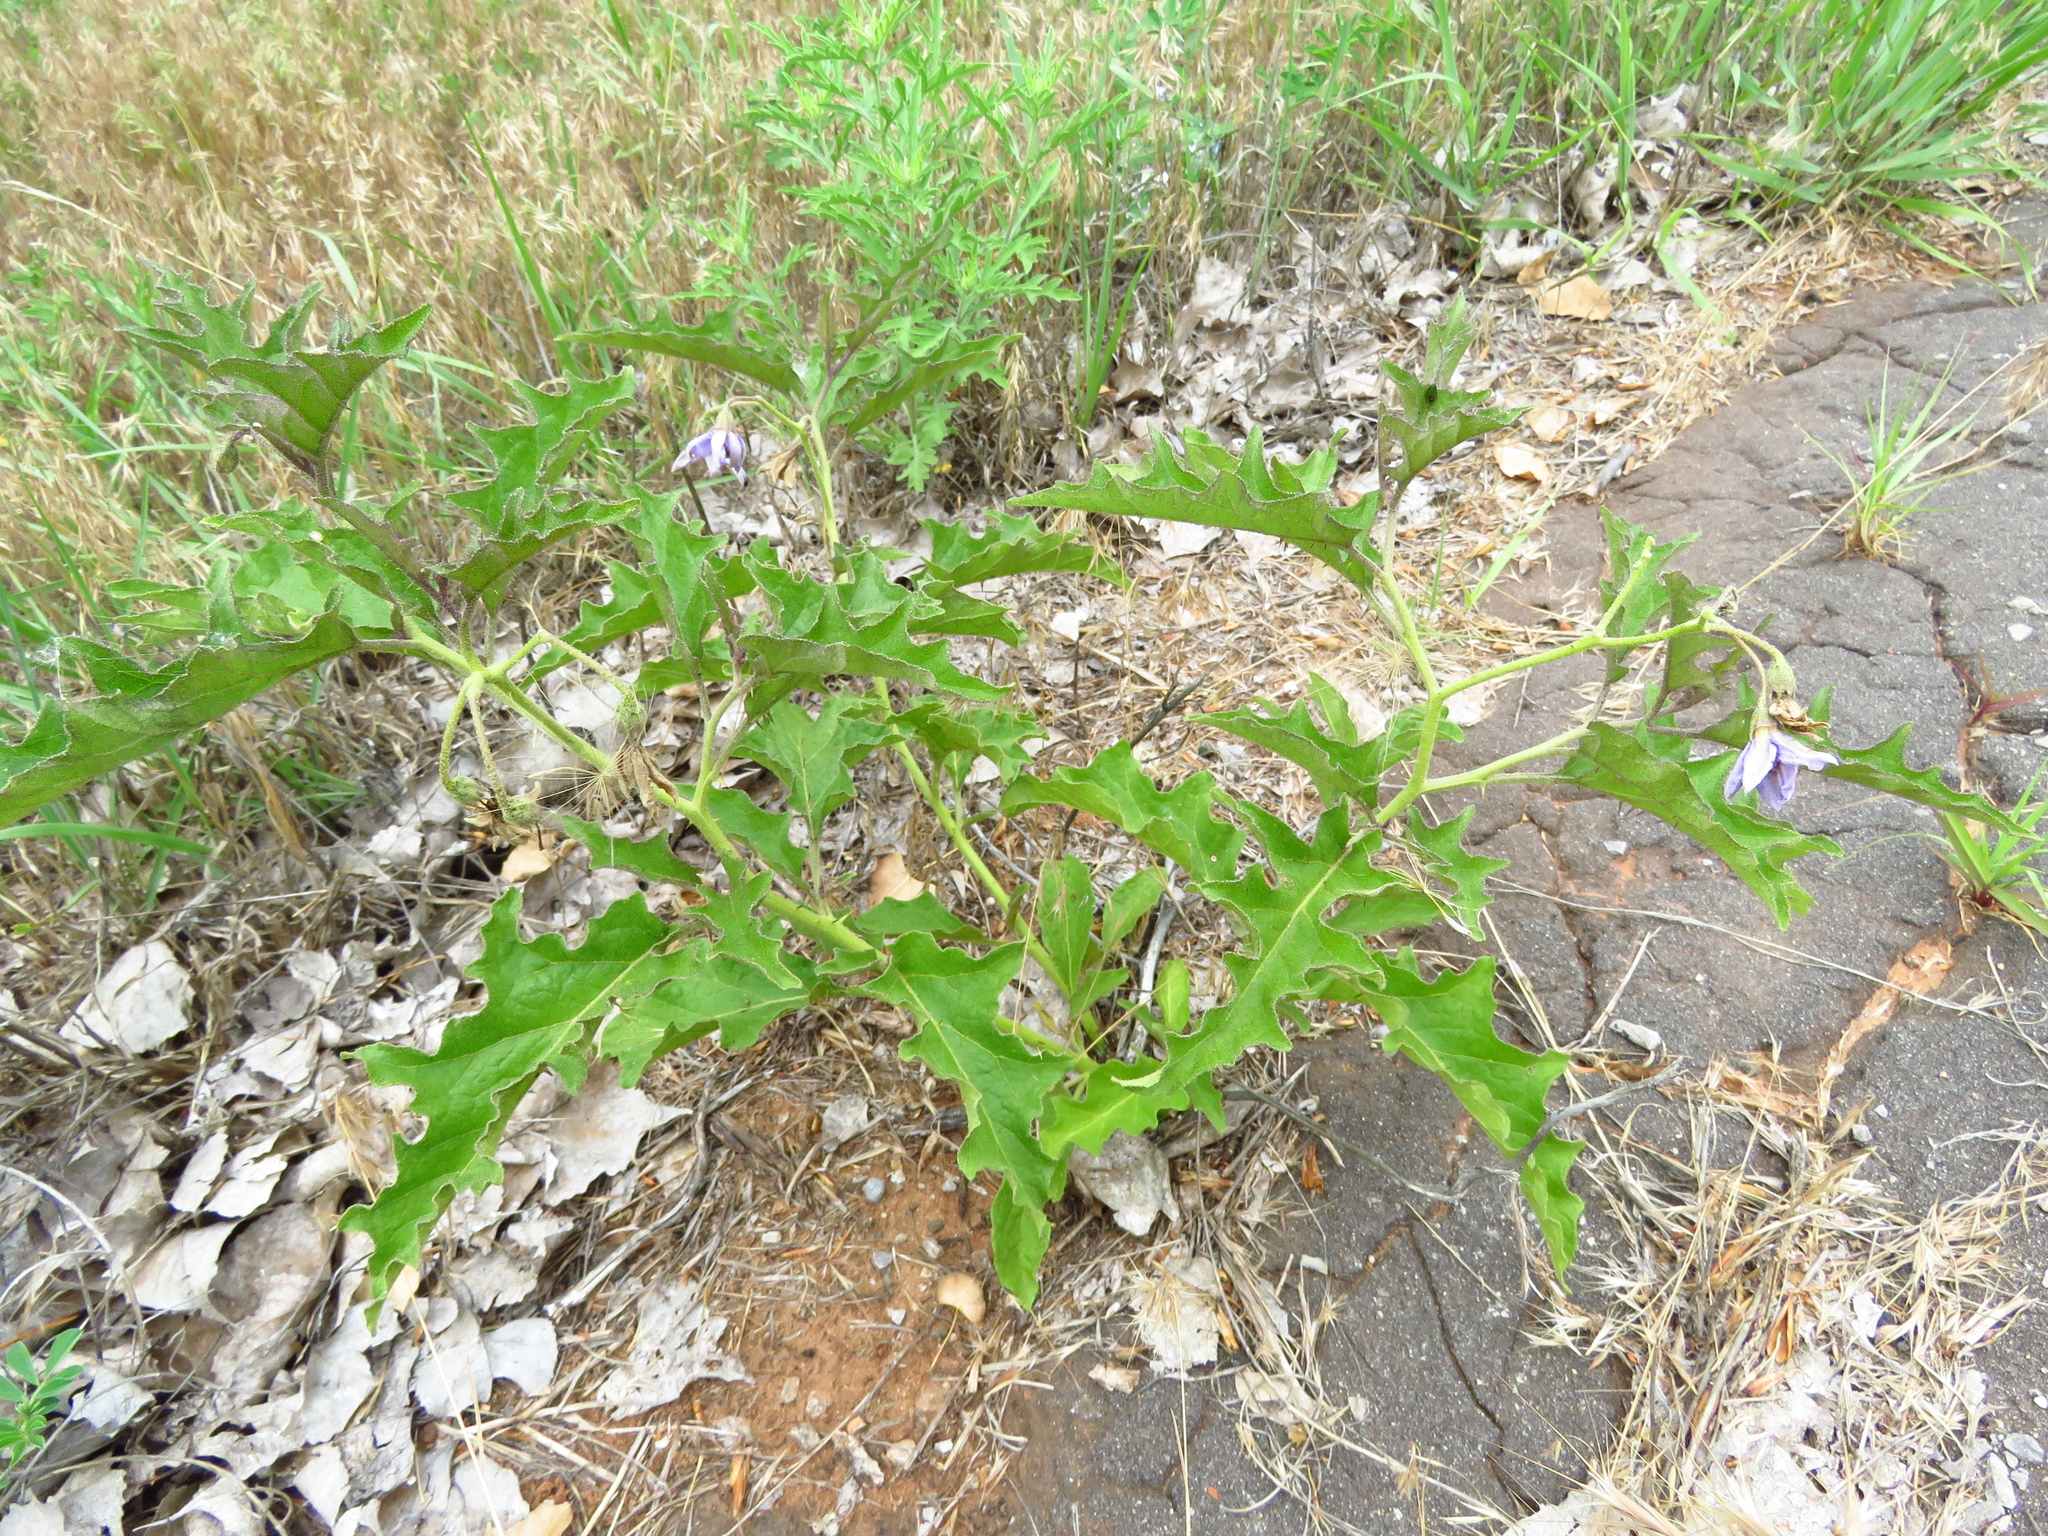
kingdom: Plantae
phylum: Tracheophyta
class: Magnoliopsida
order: Solanales
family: Solanaceae
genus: Solanum
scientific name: Solanum dimidiatum
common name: Carolina horse-nettle
